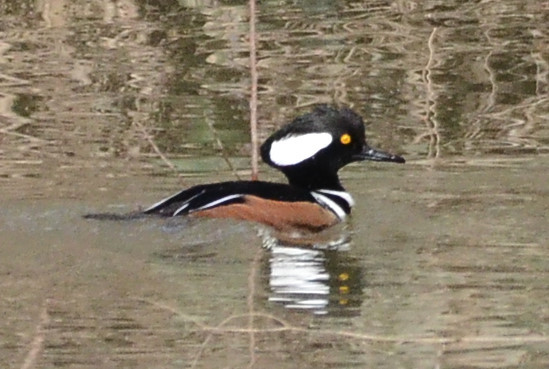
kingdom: Animalia
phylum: Chordata
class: Aves
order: Anseriformes
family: Anatidae
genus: Lophodytes
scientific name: Lophodytes cucullatus
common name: Hooded merganser
